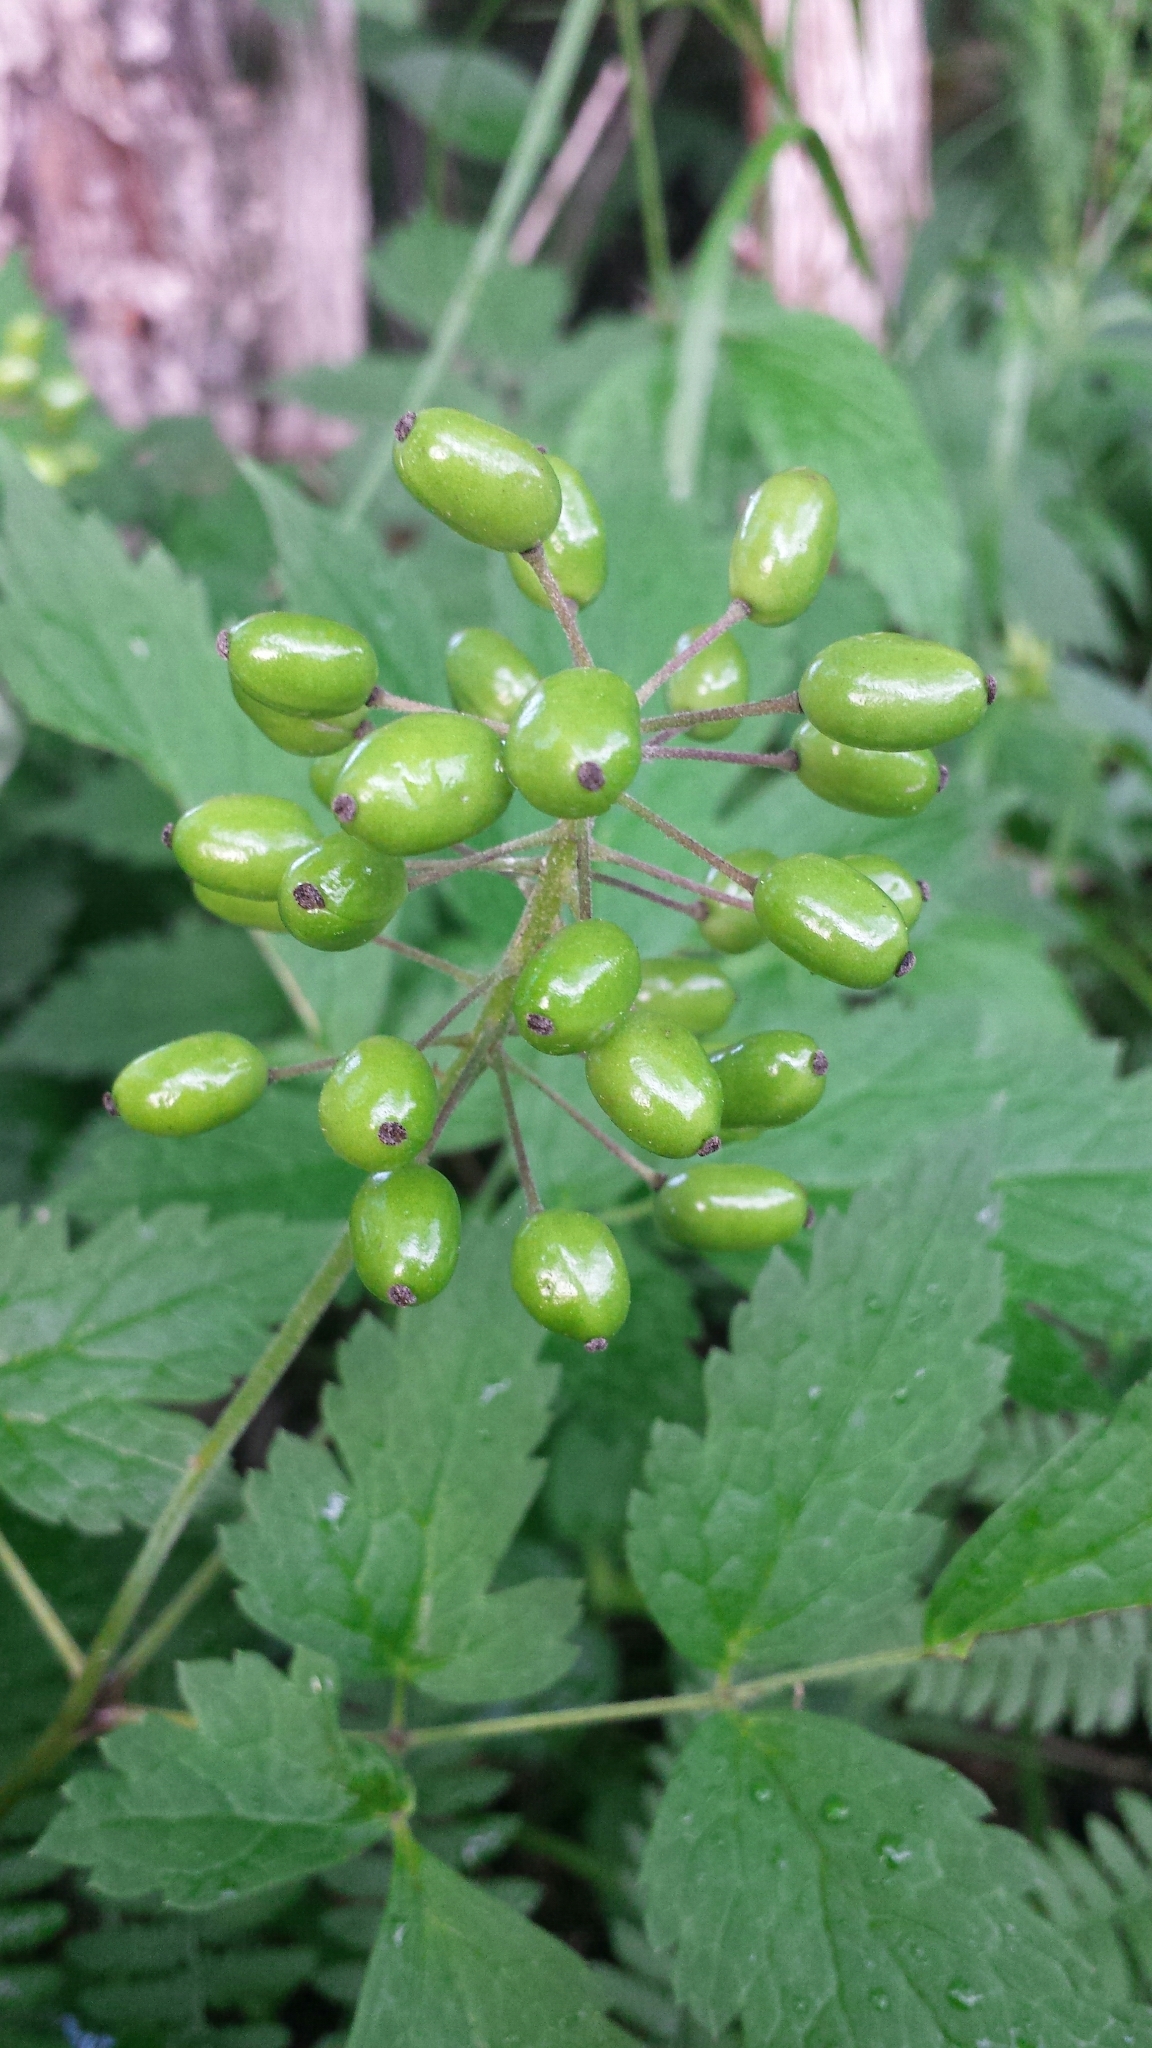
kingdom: Plantae
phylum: Tracheophyta
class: Magnoliopsida
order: Ranunculales
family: Ranunculaceae
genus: Actaea
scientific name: Actaea rubra
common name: Red baneberry
